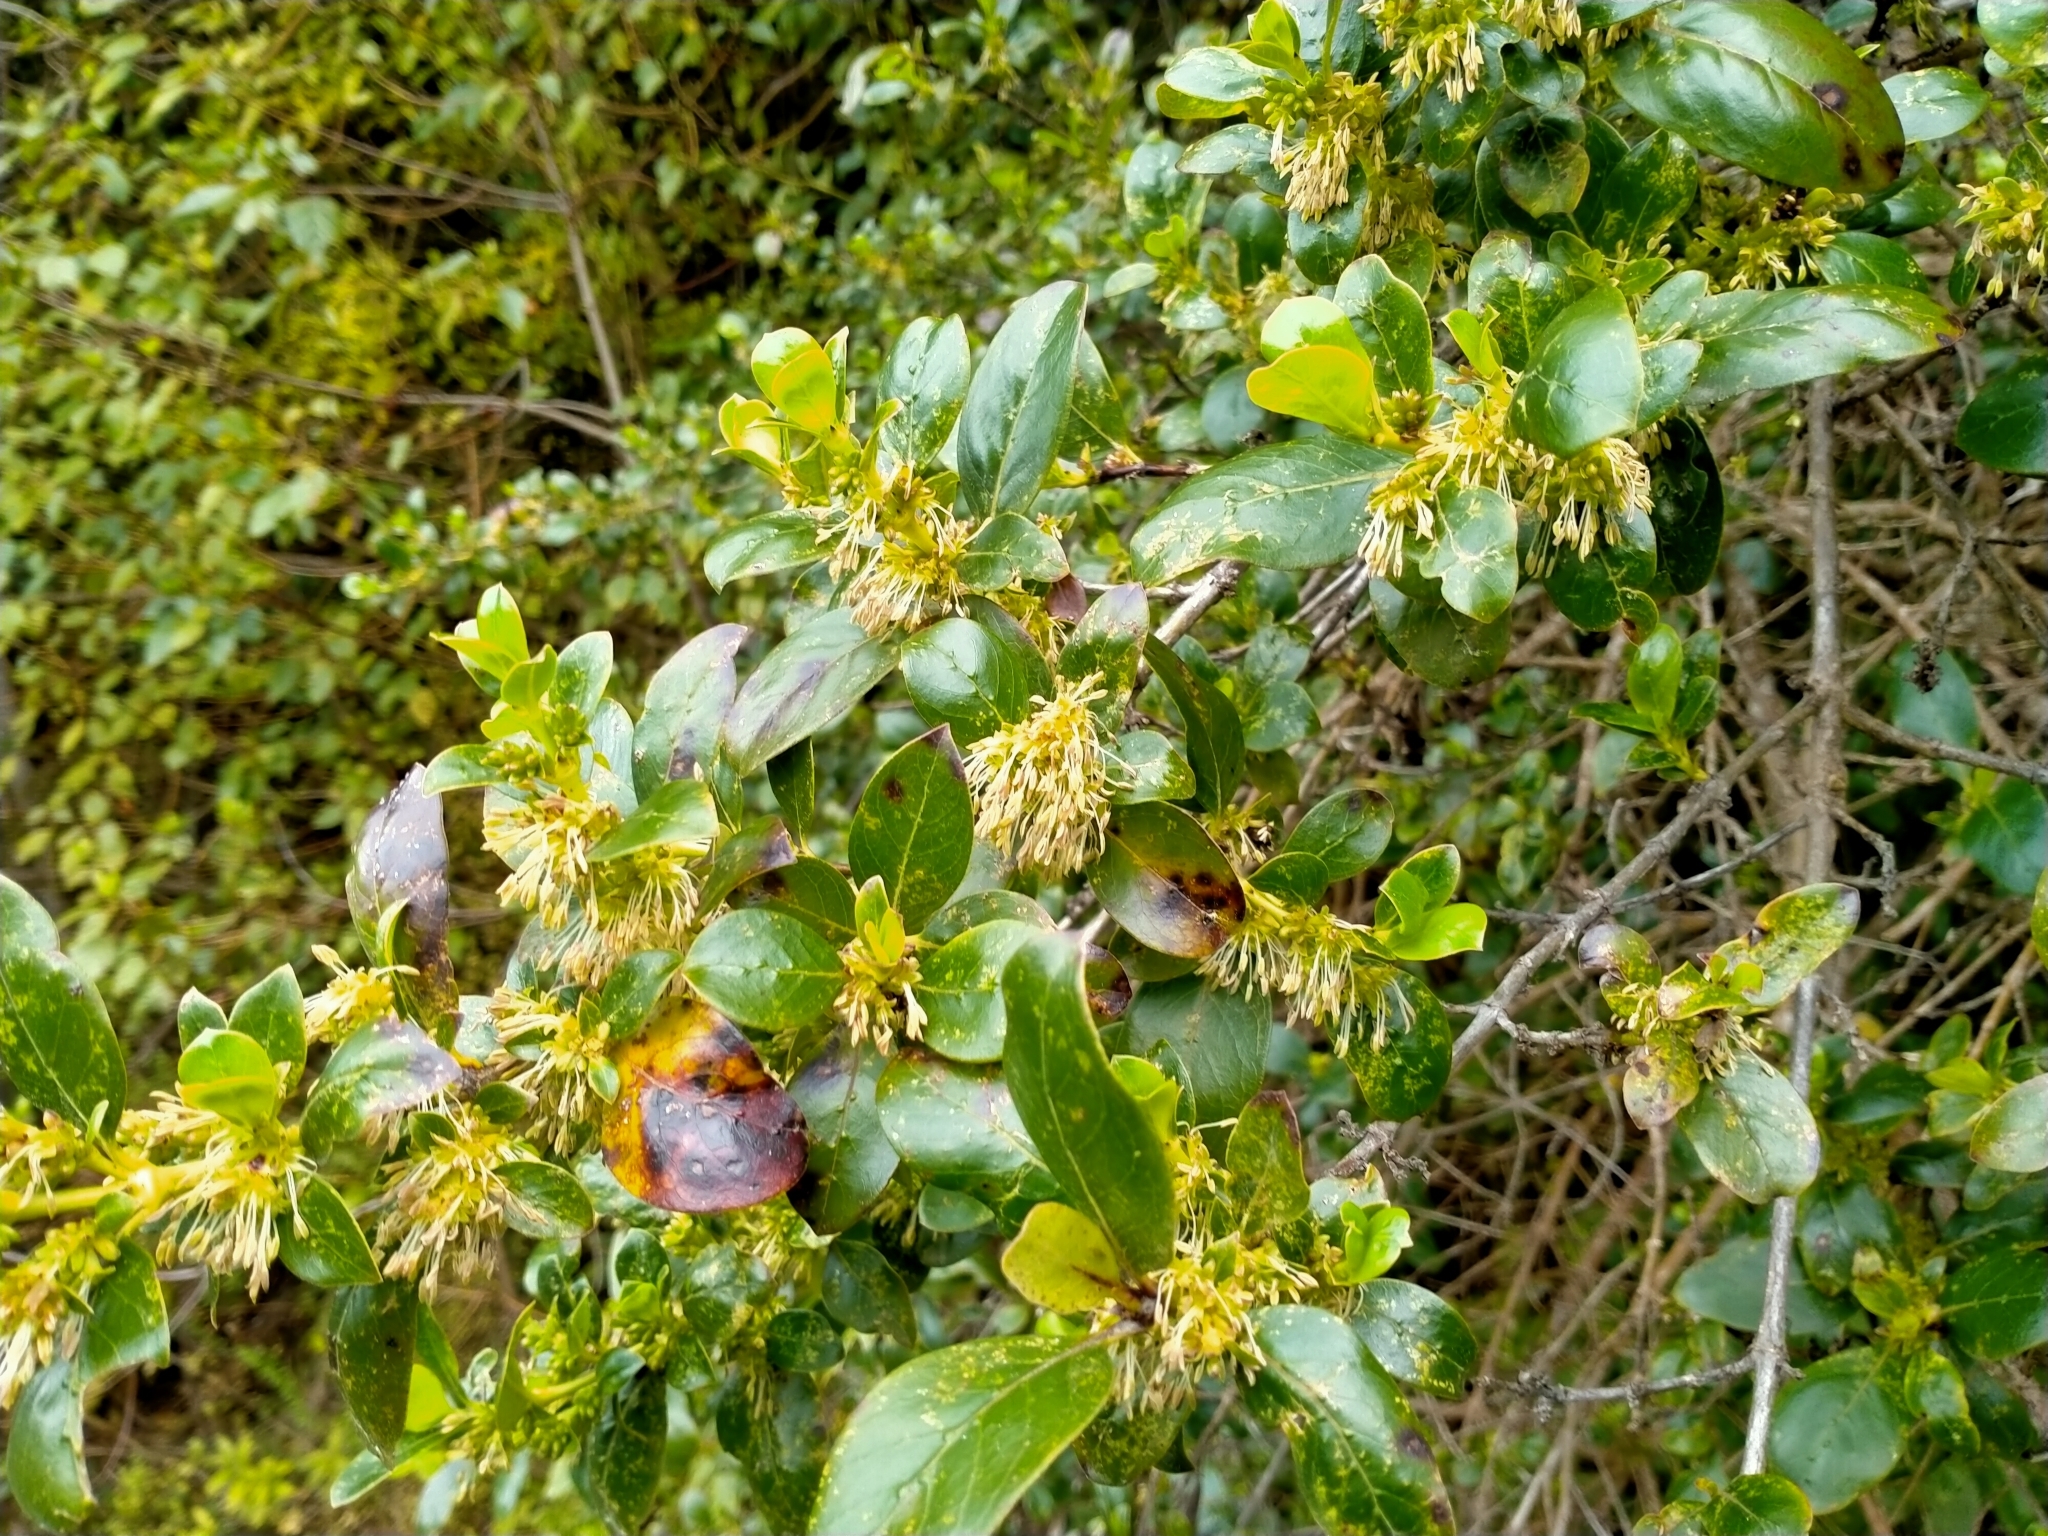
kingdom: Plantae
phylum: Tracheophyta
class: Magnoliopsida
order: Gentianales
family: Rubiaceae
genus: Coprosma
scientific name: Coprosma robusta
